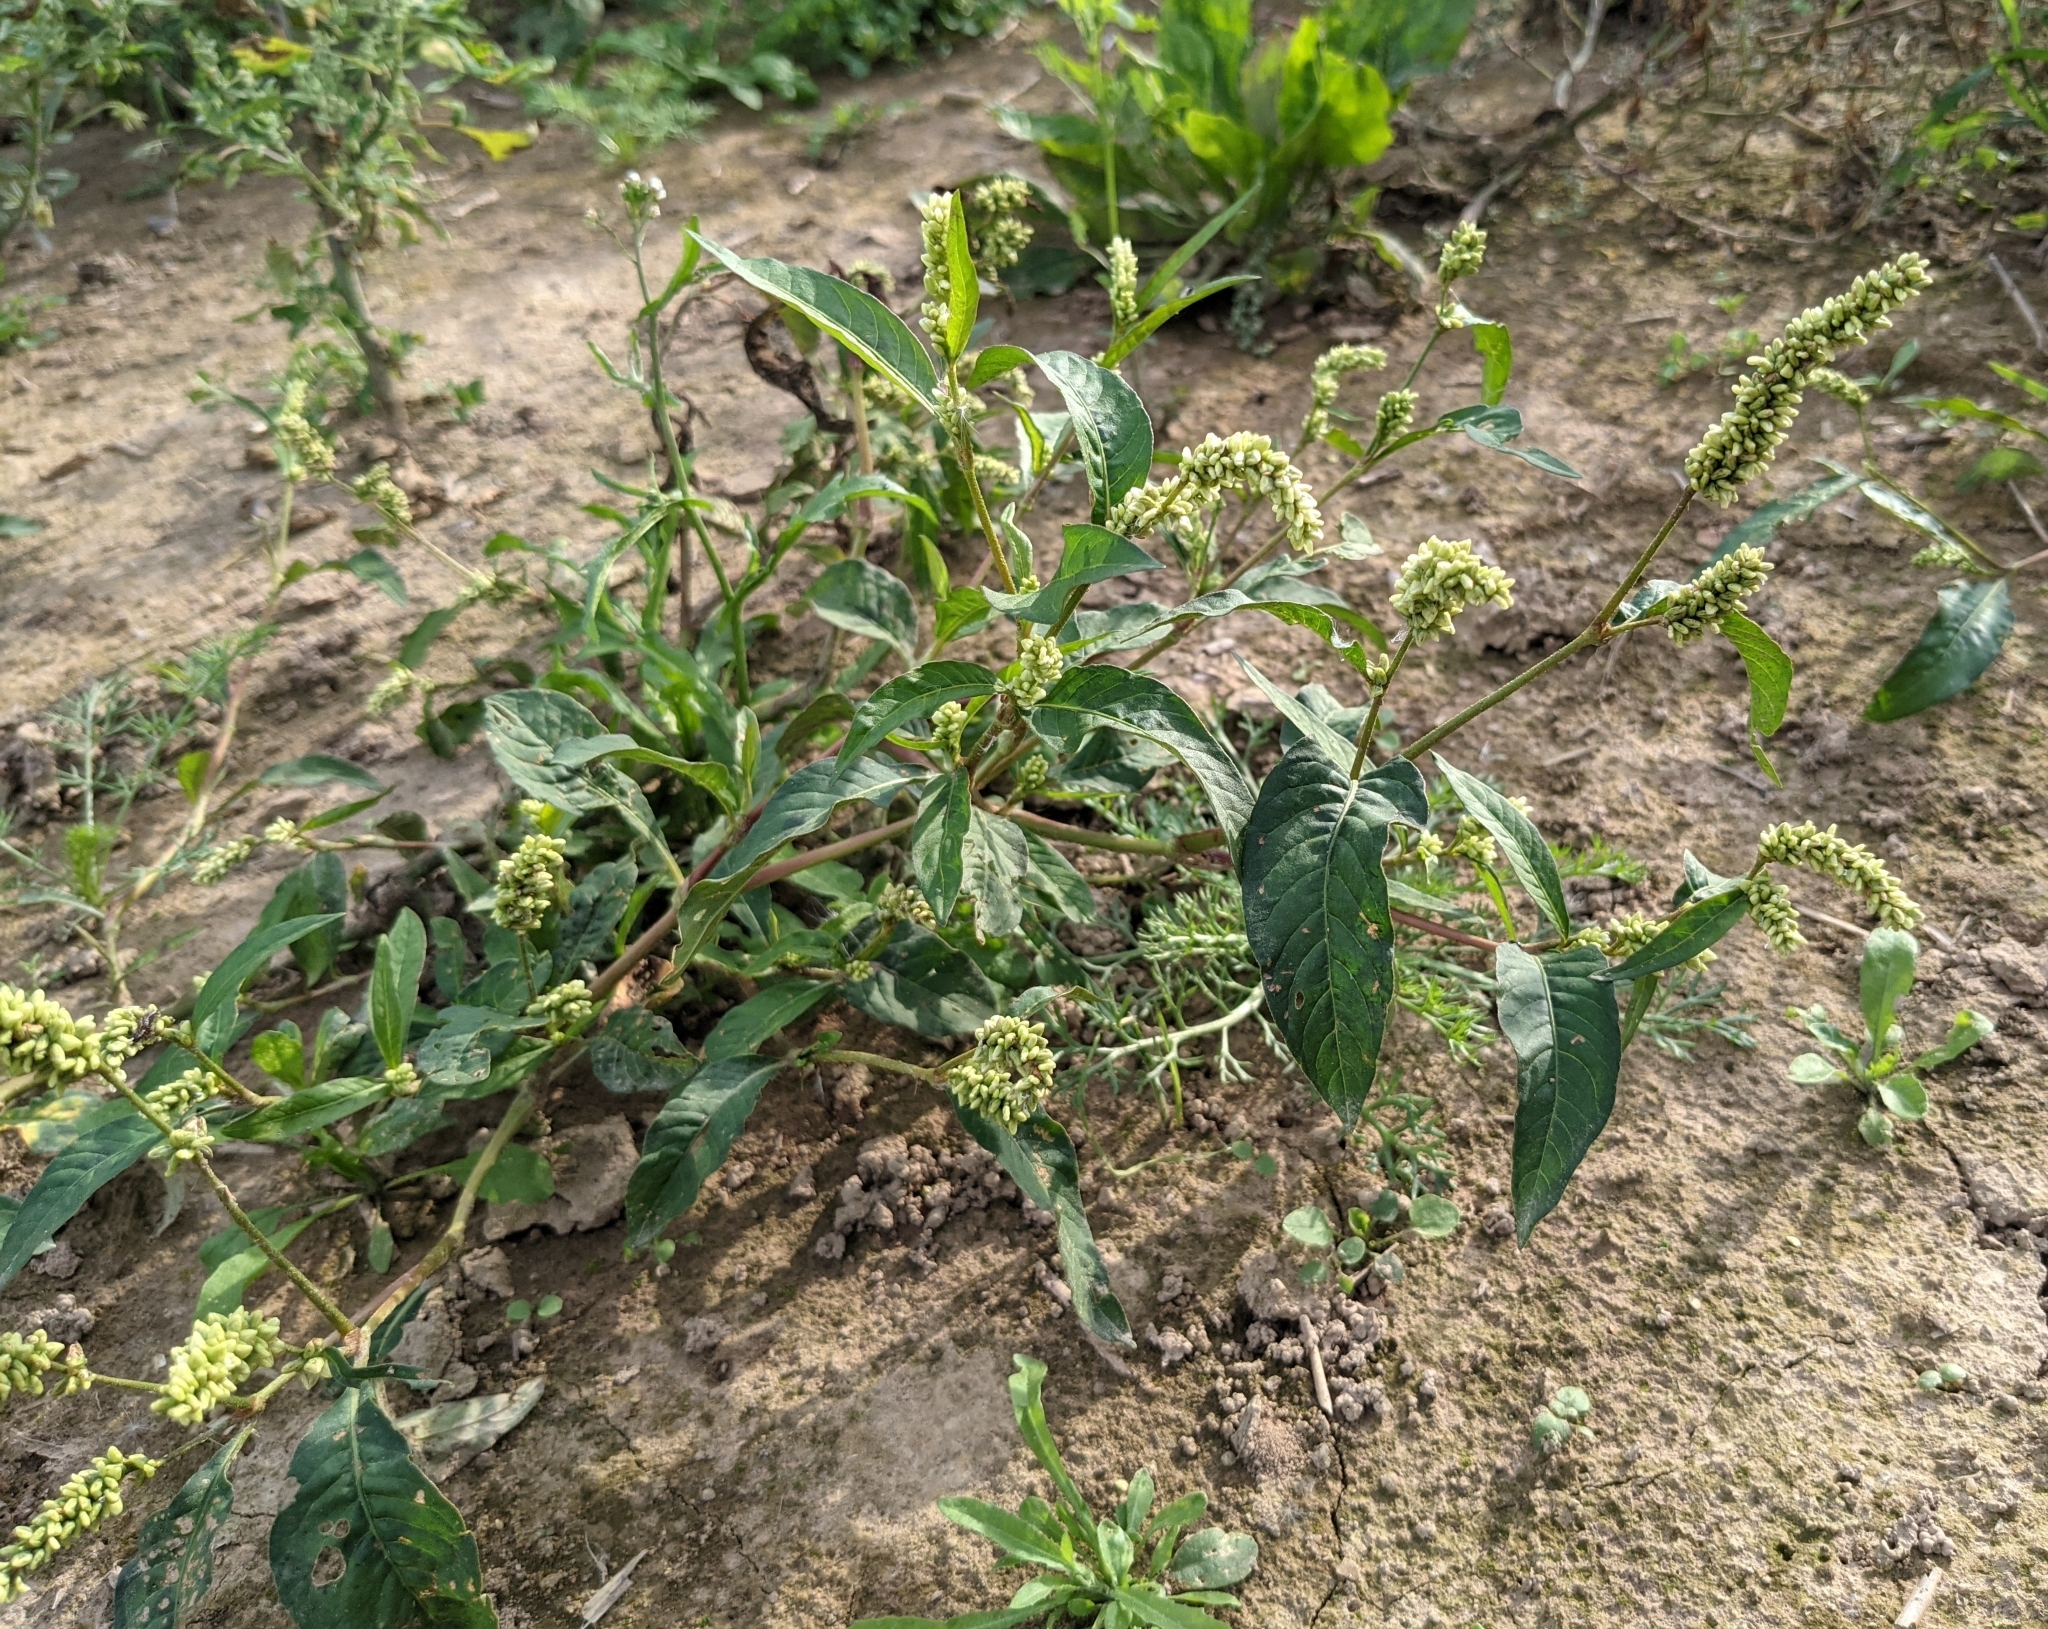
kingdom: Plantae
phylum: Tracheophyta
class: Magnoliopsida
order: Caryophyllales
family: Polygonaceae
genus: Persicaria
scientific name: Persicaria lapathifolia
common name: Curlytop knotweed
